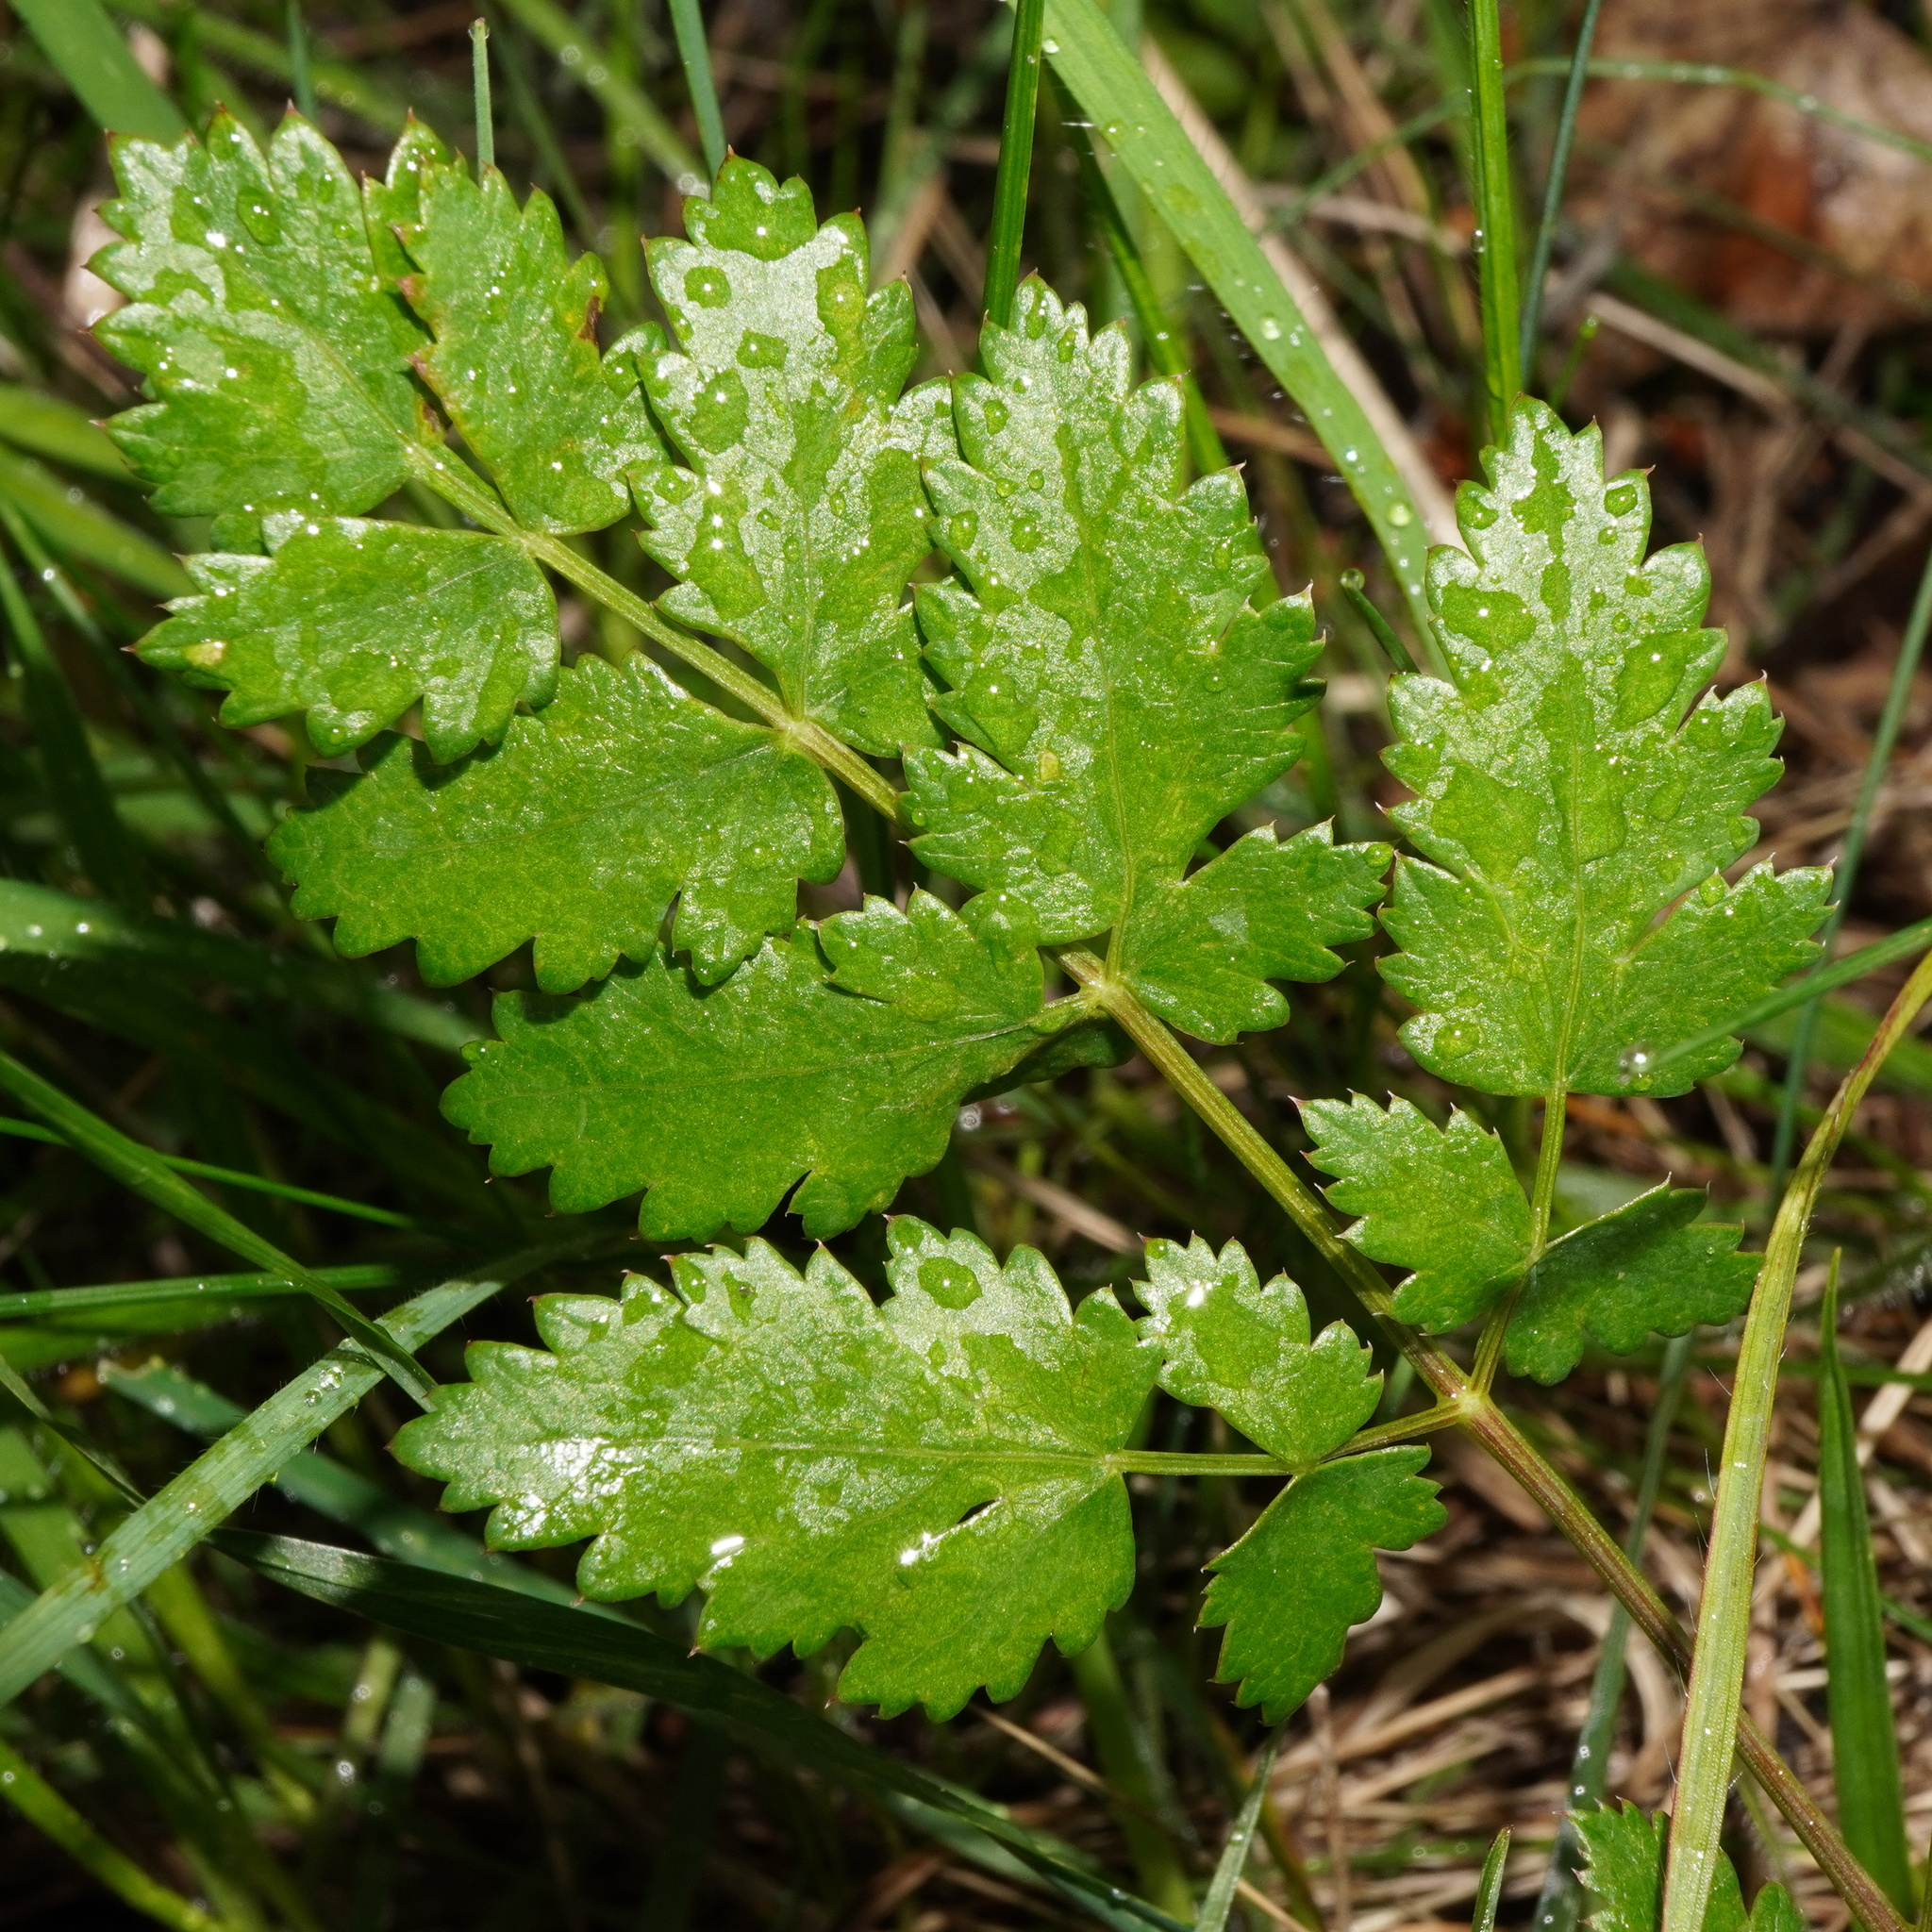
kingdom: Plantae
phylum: Tracheophyta
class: Magnoliopsida
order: Apiales
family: Apiaceae
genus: Cervaria
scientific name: Cervaria rivini
